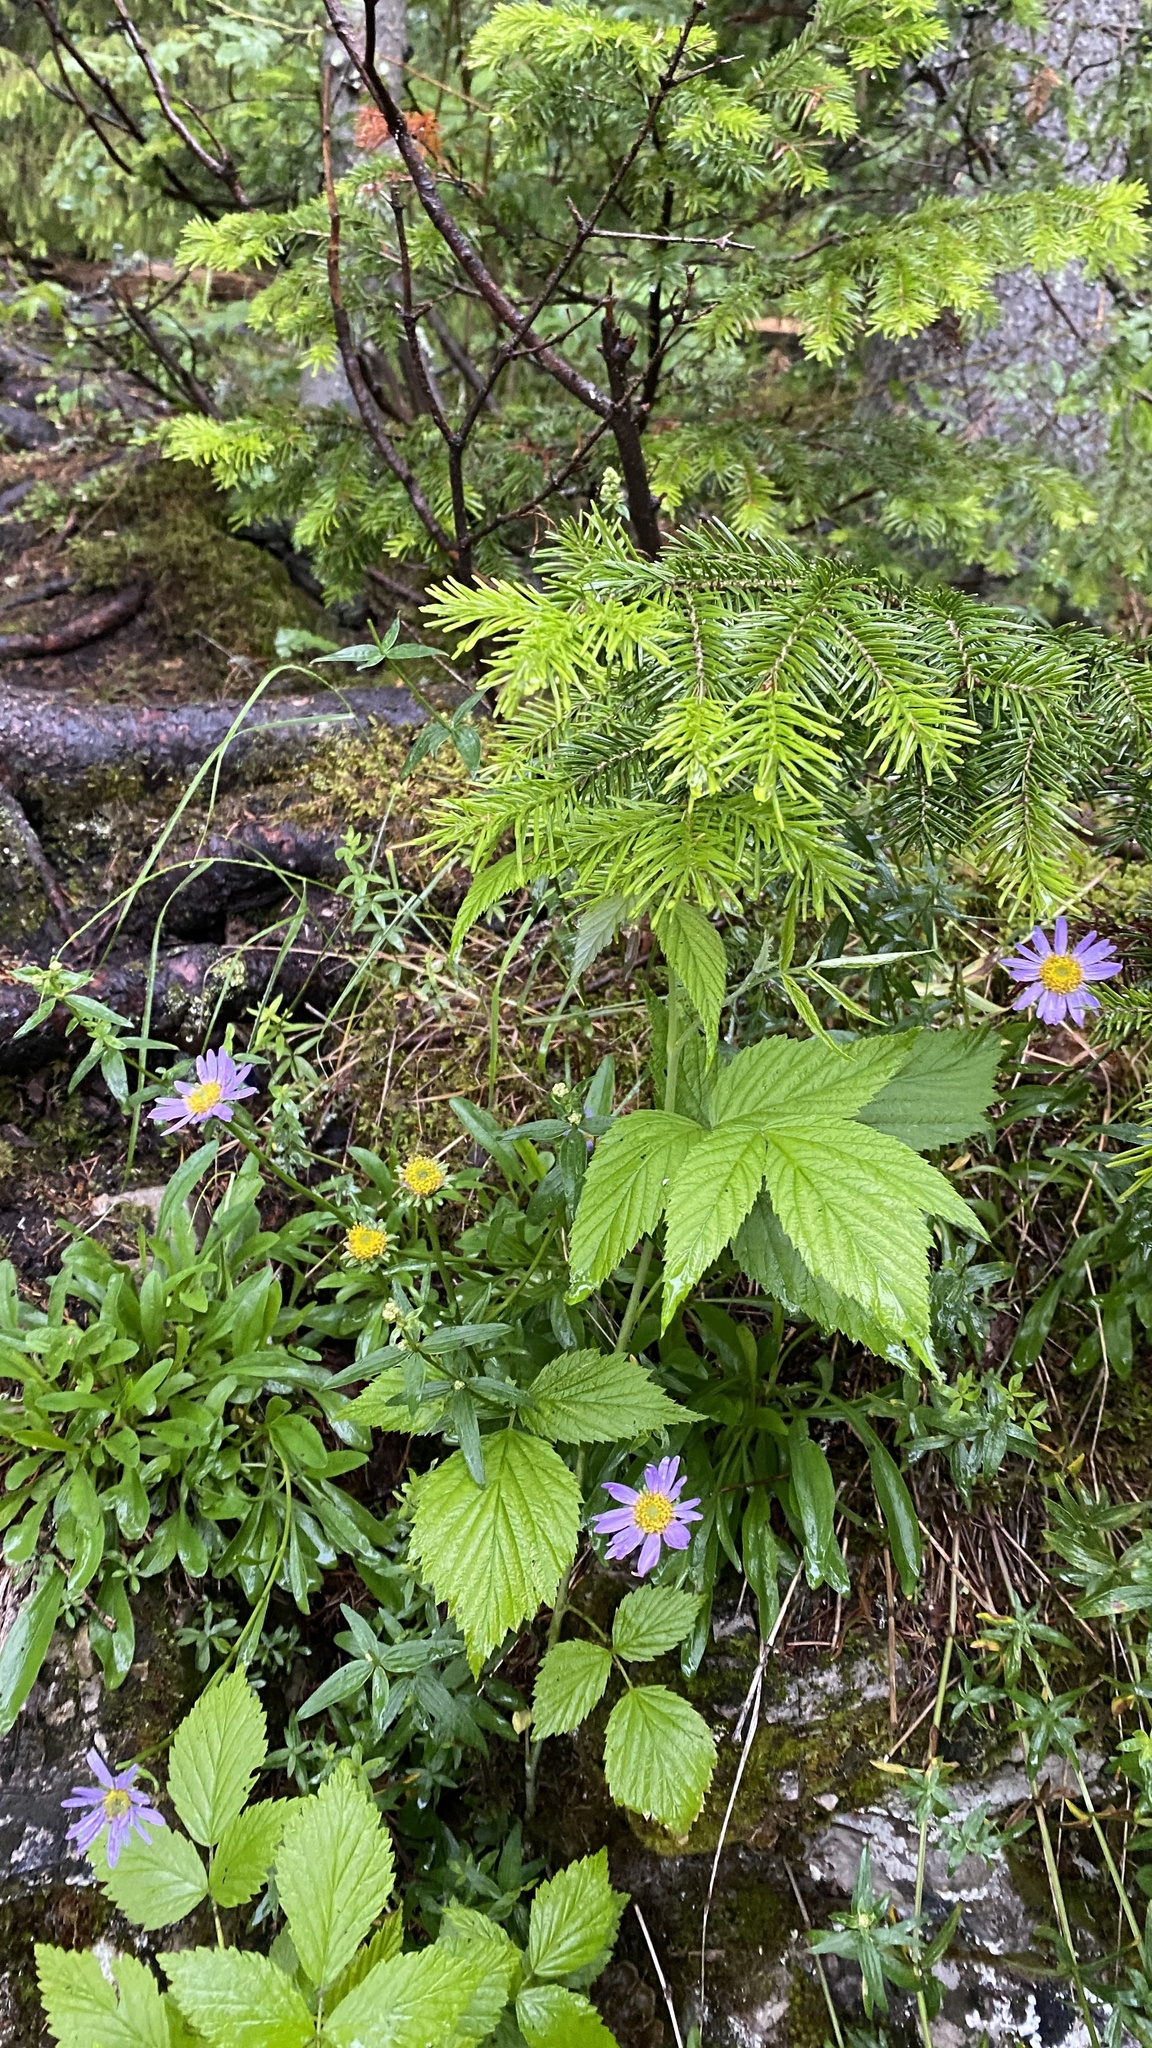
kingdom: Plantae
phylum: Tracheophyta
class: Magnoliopsida
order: Asterales
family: Asteraceae
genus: Aster
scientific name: Aster alpinus
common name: Alpine aster
